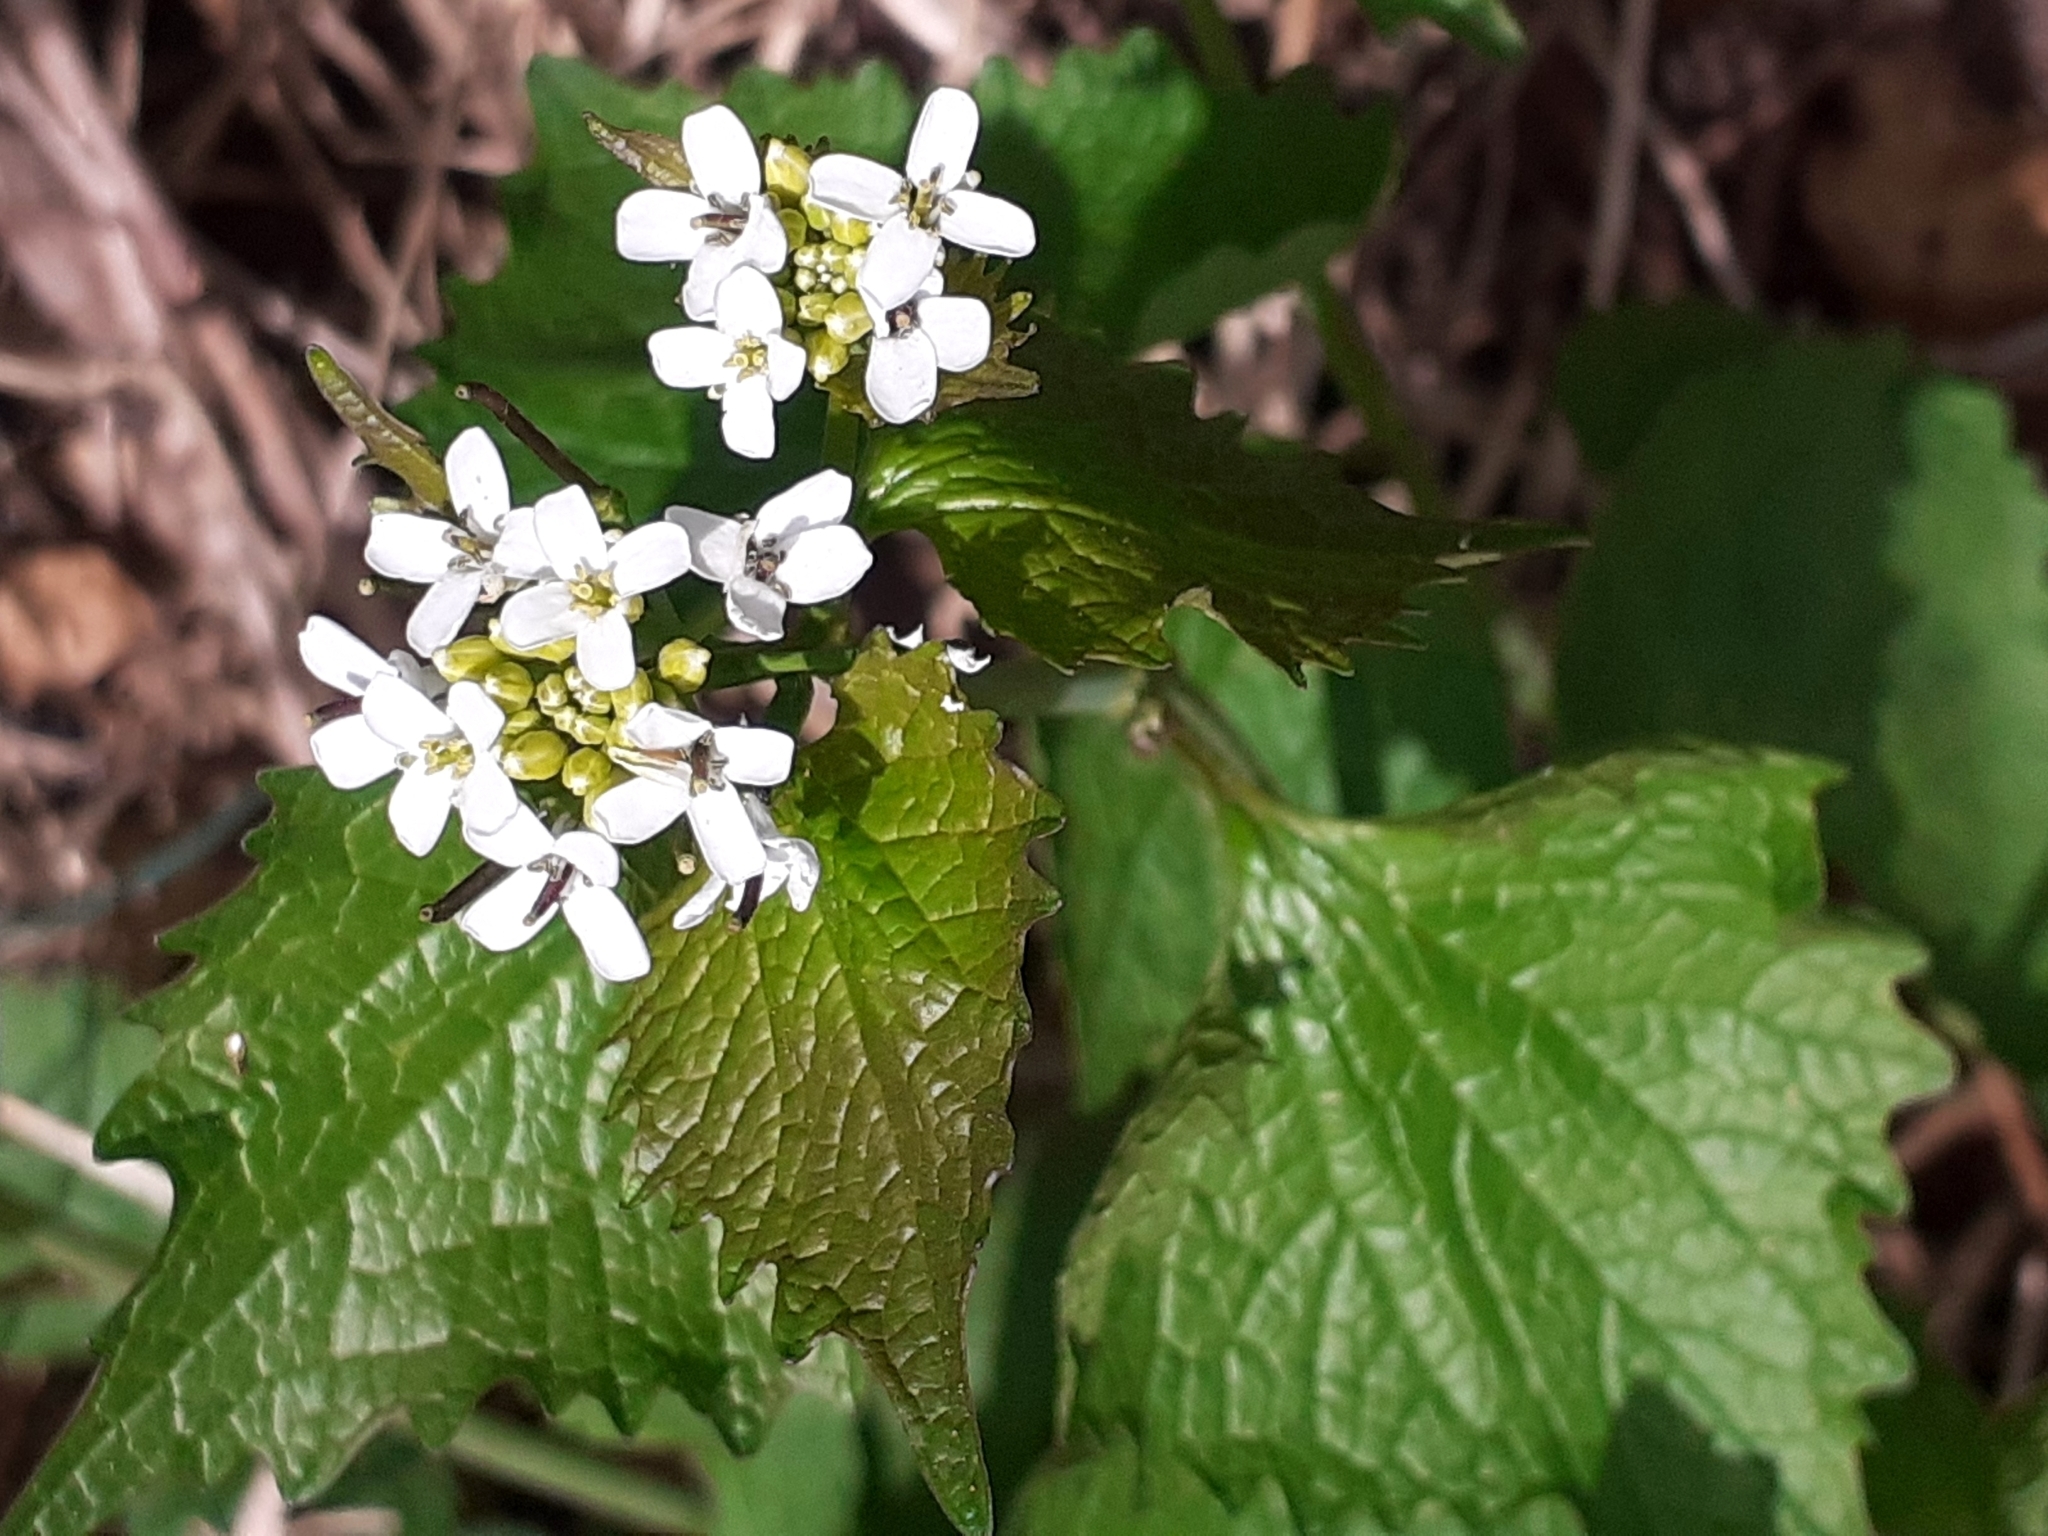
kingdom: Plantae
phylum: Tracheophyta
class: Magnoliopsida
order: Brassicales
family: Brassicaceae
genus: Alliaria
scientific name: Alliaria petiolata
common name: Garlic mustard
